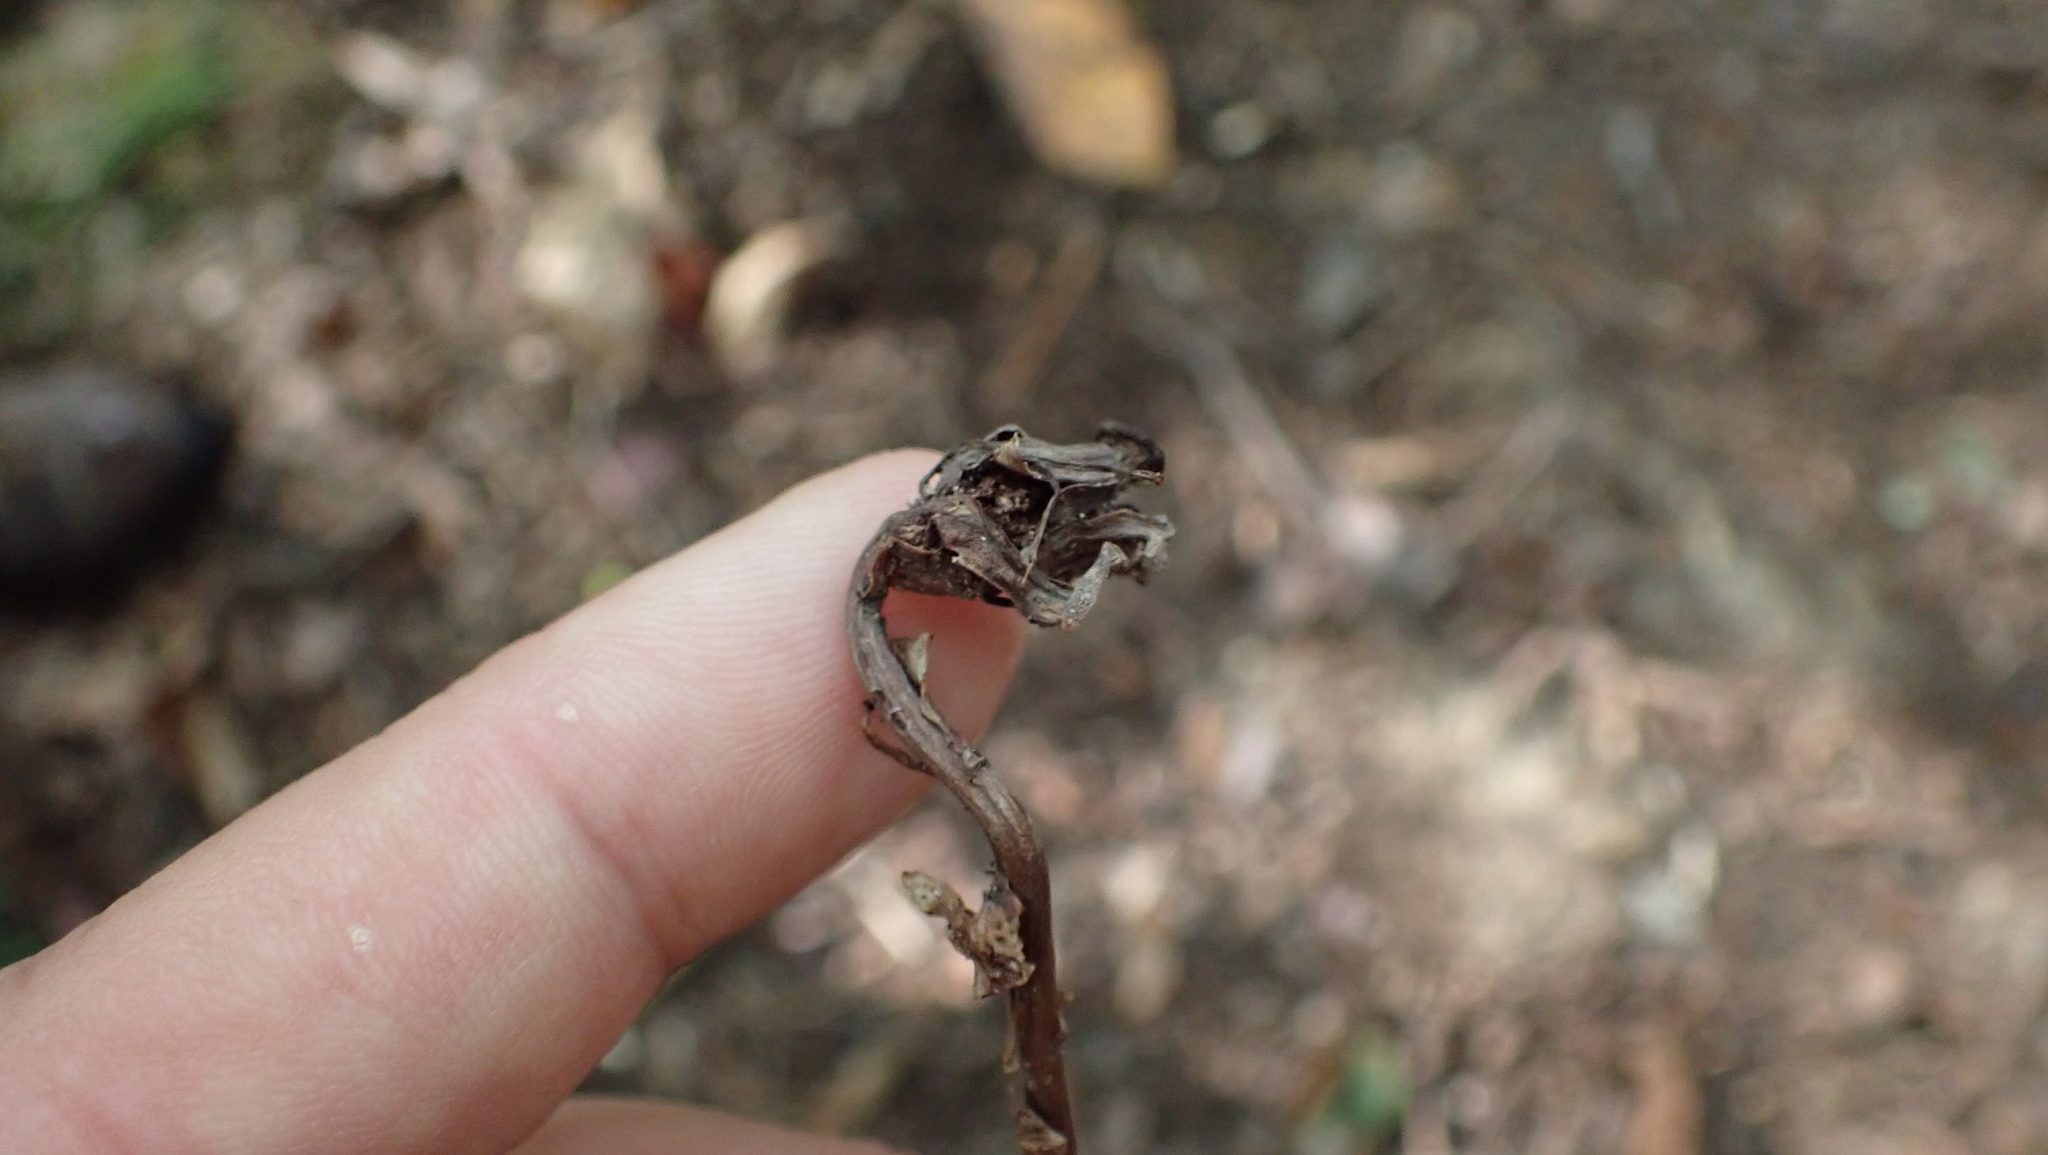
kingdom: Plantae
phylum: Tracheophyta
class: Magnoliopsida
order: Ericales
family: Ericaceae
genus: Monotropa
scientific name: Monotropa uniflora
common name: Convulsion root
